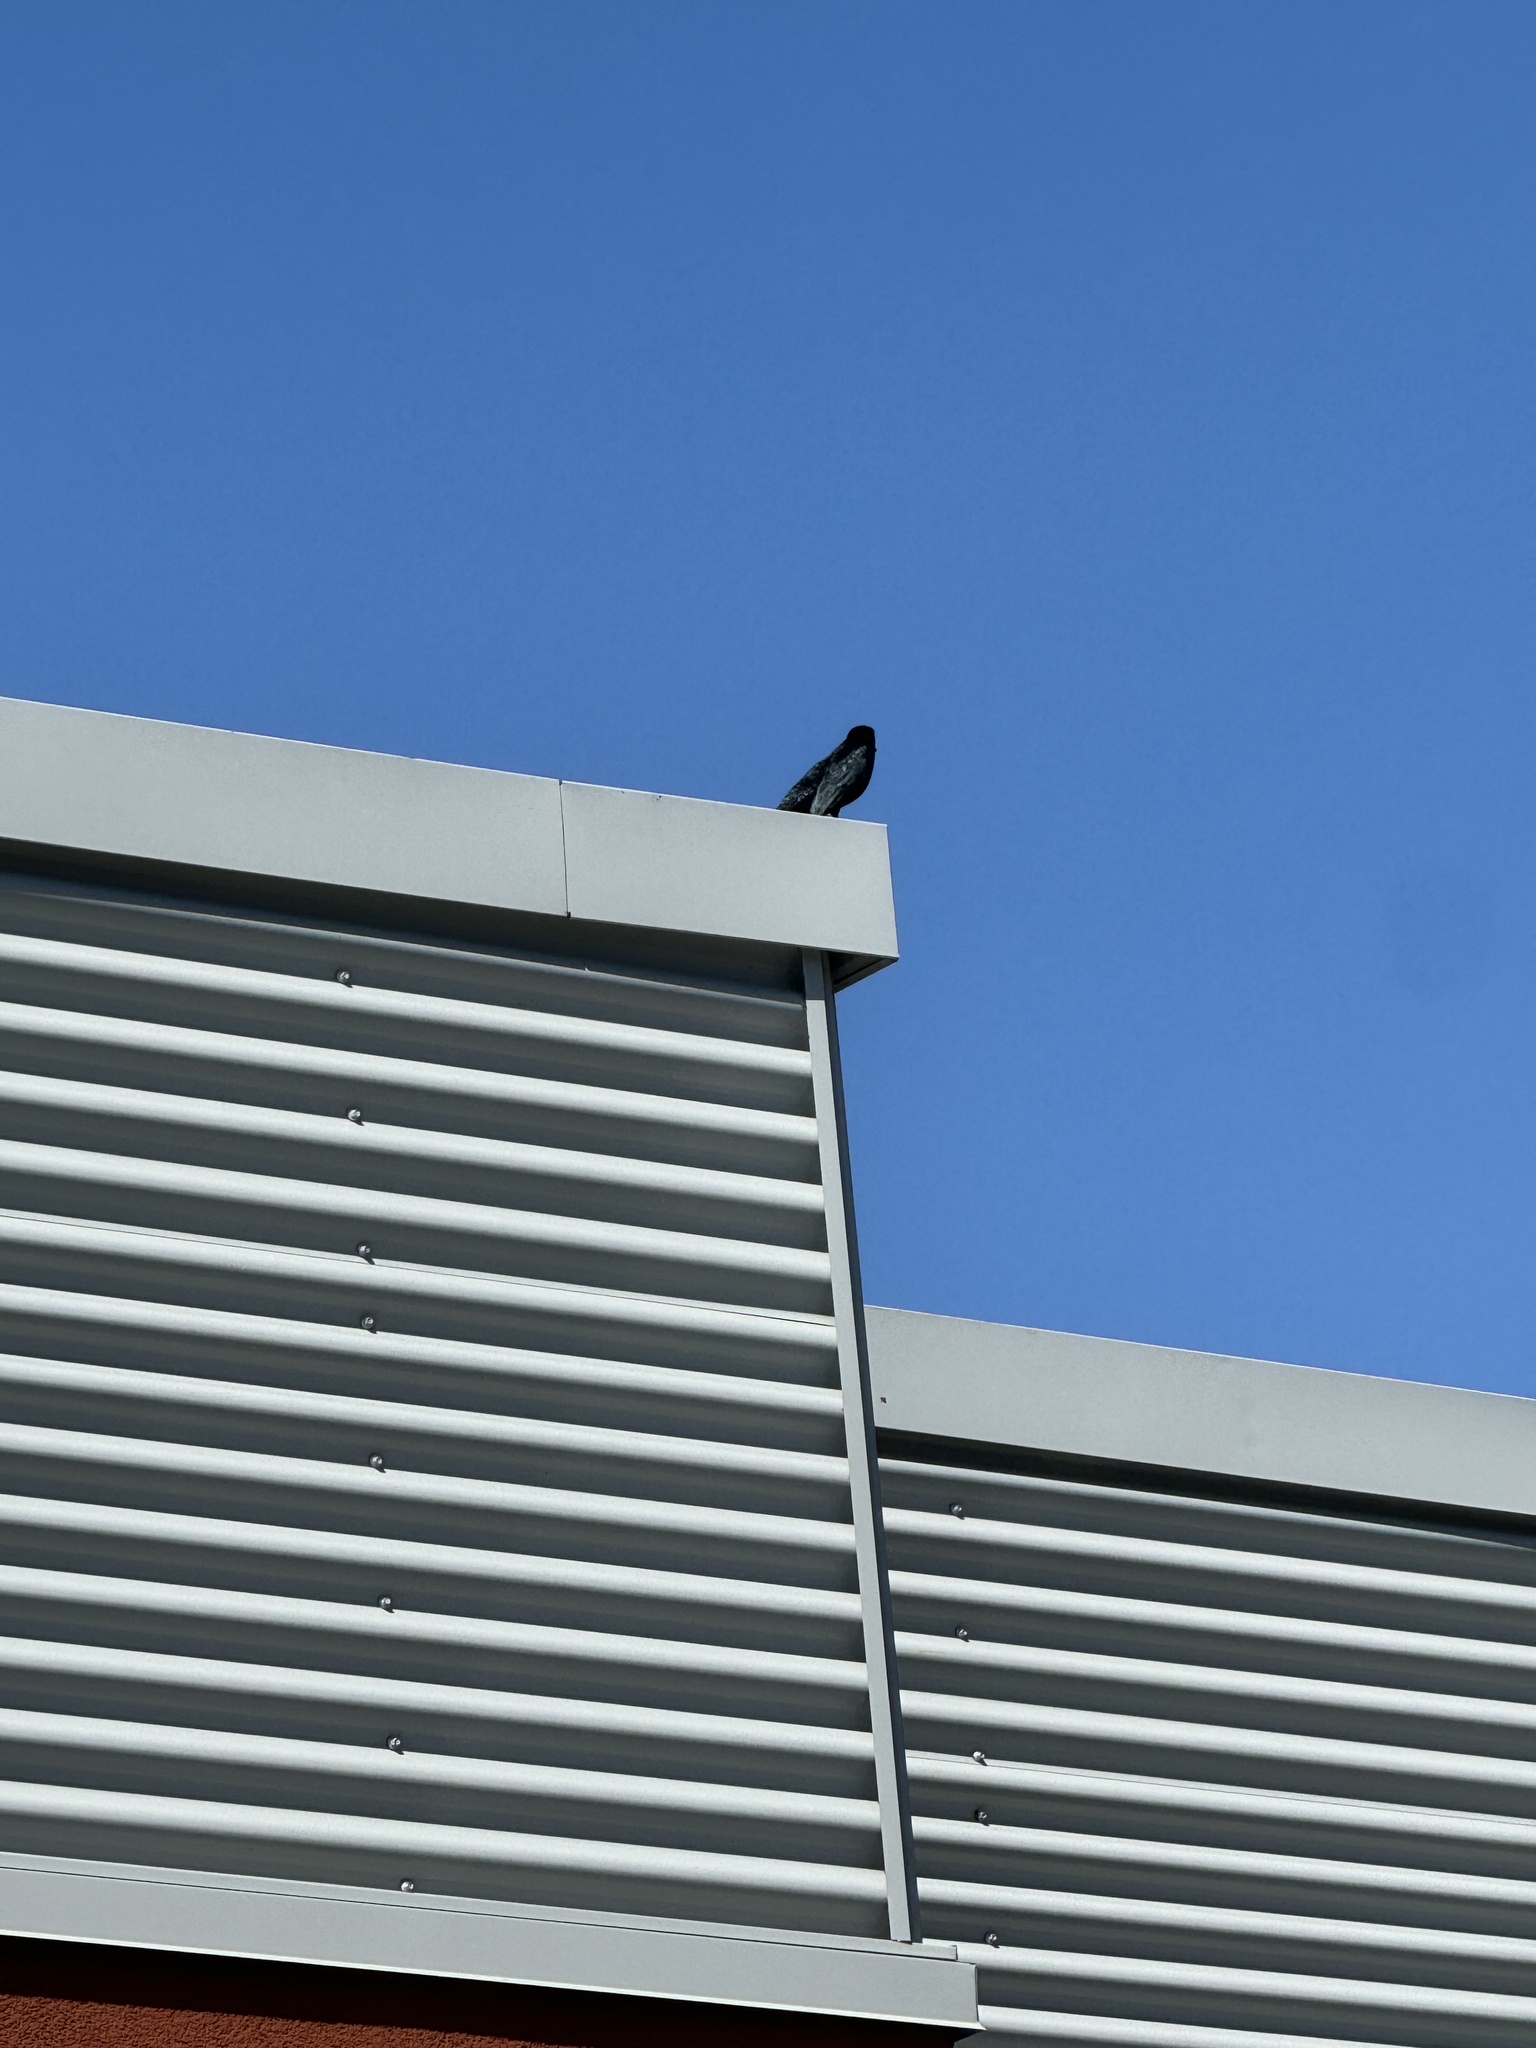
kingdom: Animalia
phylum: Chordata
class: Aves
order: Passeriformes
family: Icteridae
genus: Euphagus
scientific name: Euphagus cyanocephalus
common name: Brewer's blackbird
